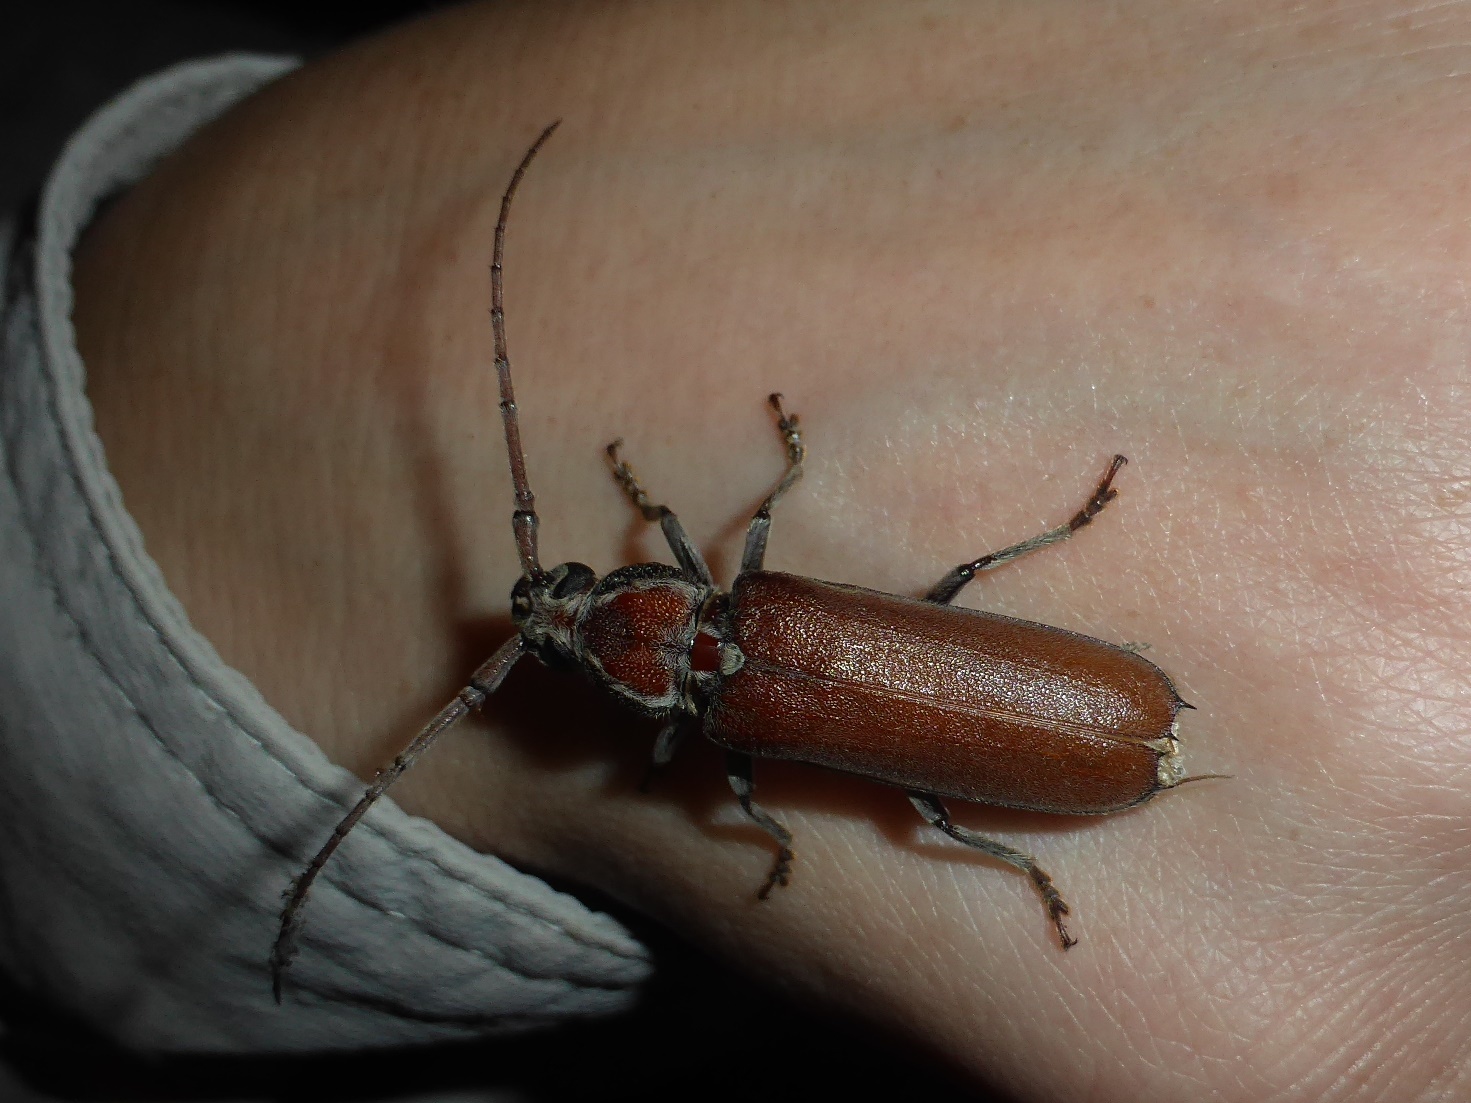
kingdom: Animalia
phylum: Arthropoda
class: Insecta
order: Coleoptera
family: Cerambycidae
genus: Praxithea
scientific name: Praxithea seabrai
